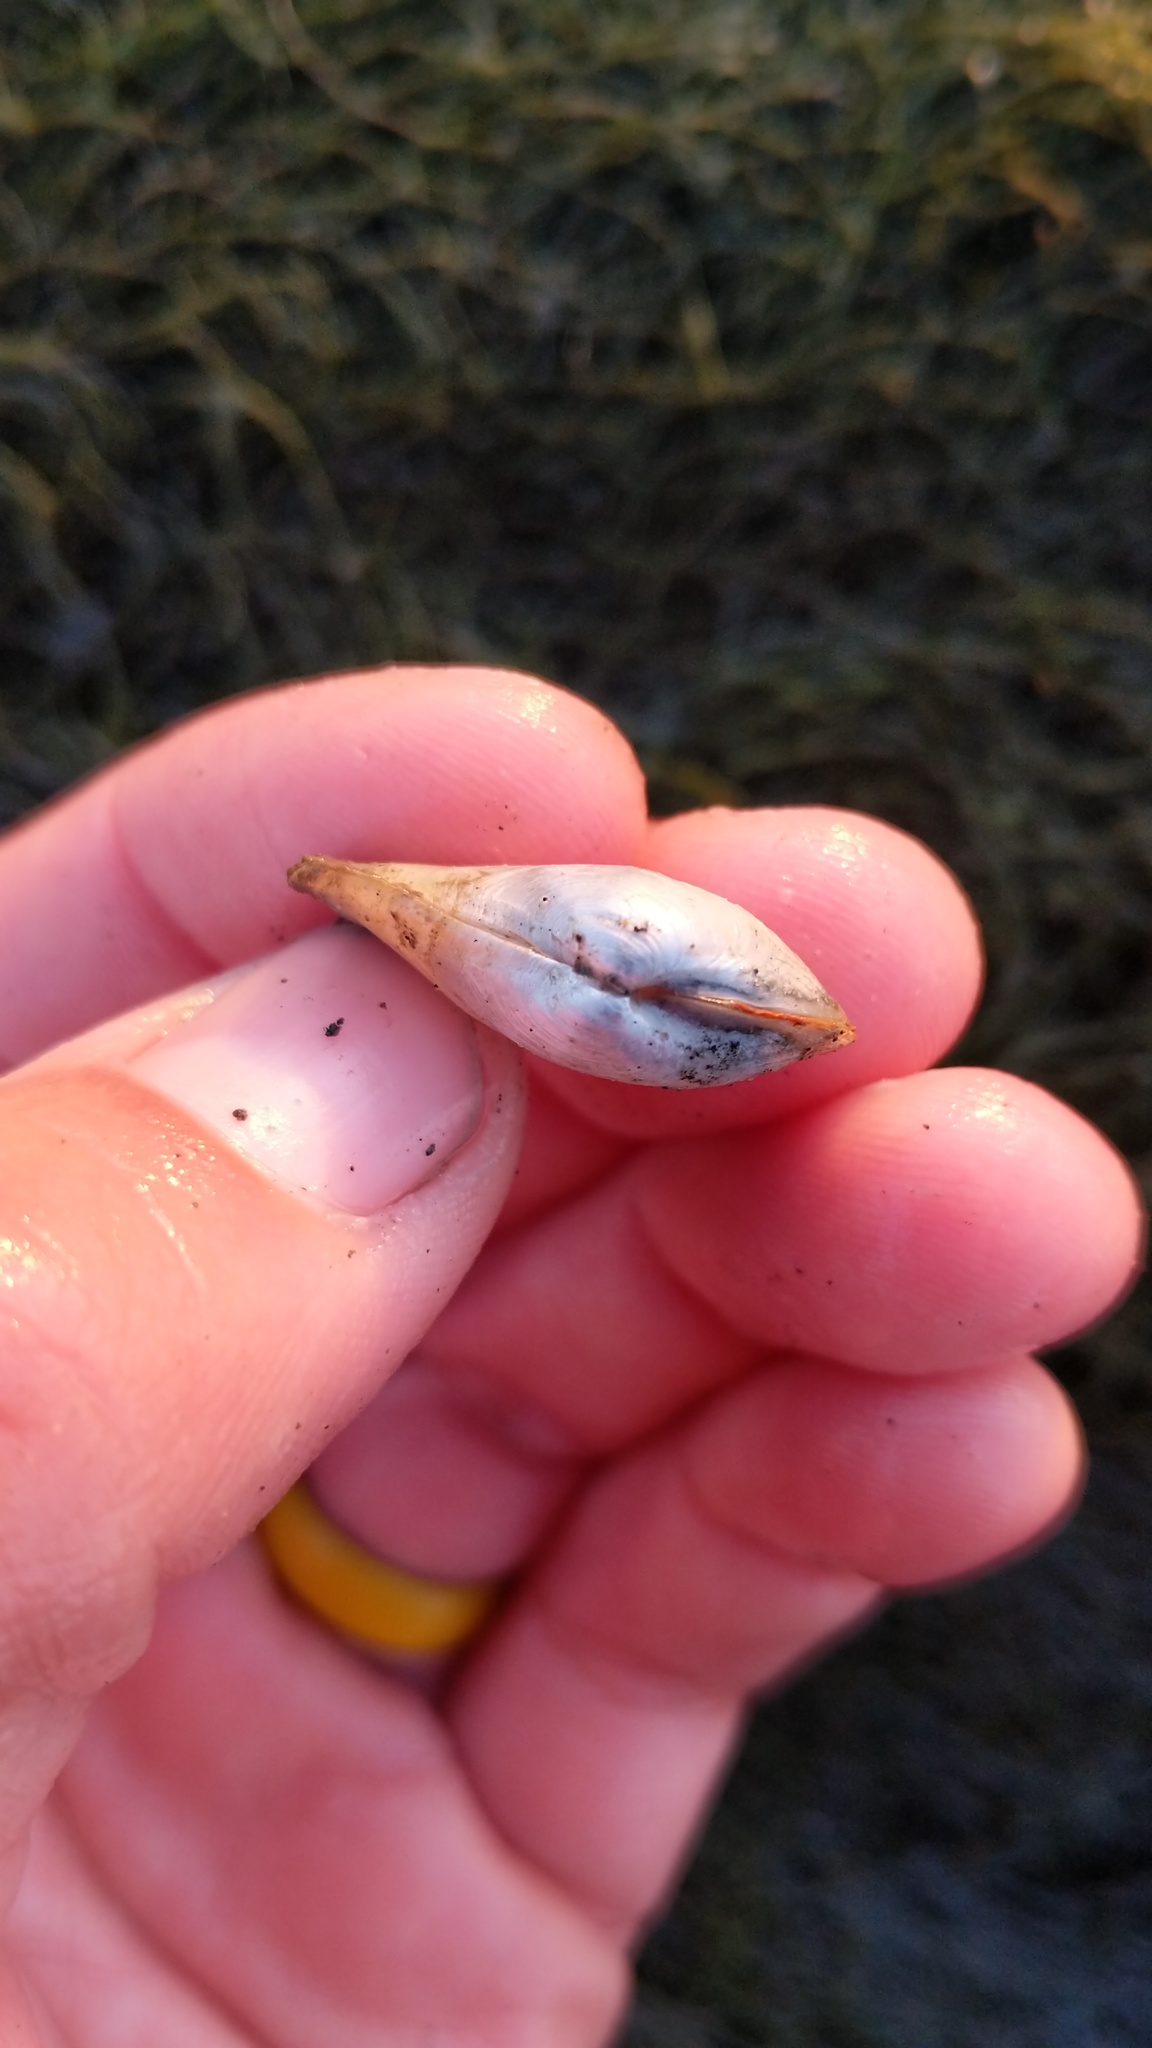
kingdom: Animalia
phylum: Mollusca
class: Bivalvia
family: Lyonsiidae
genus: Lyonsia
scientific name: Lyonsia californica
